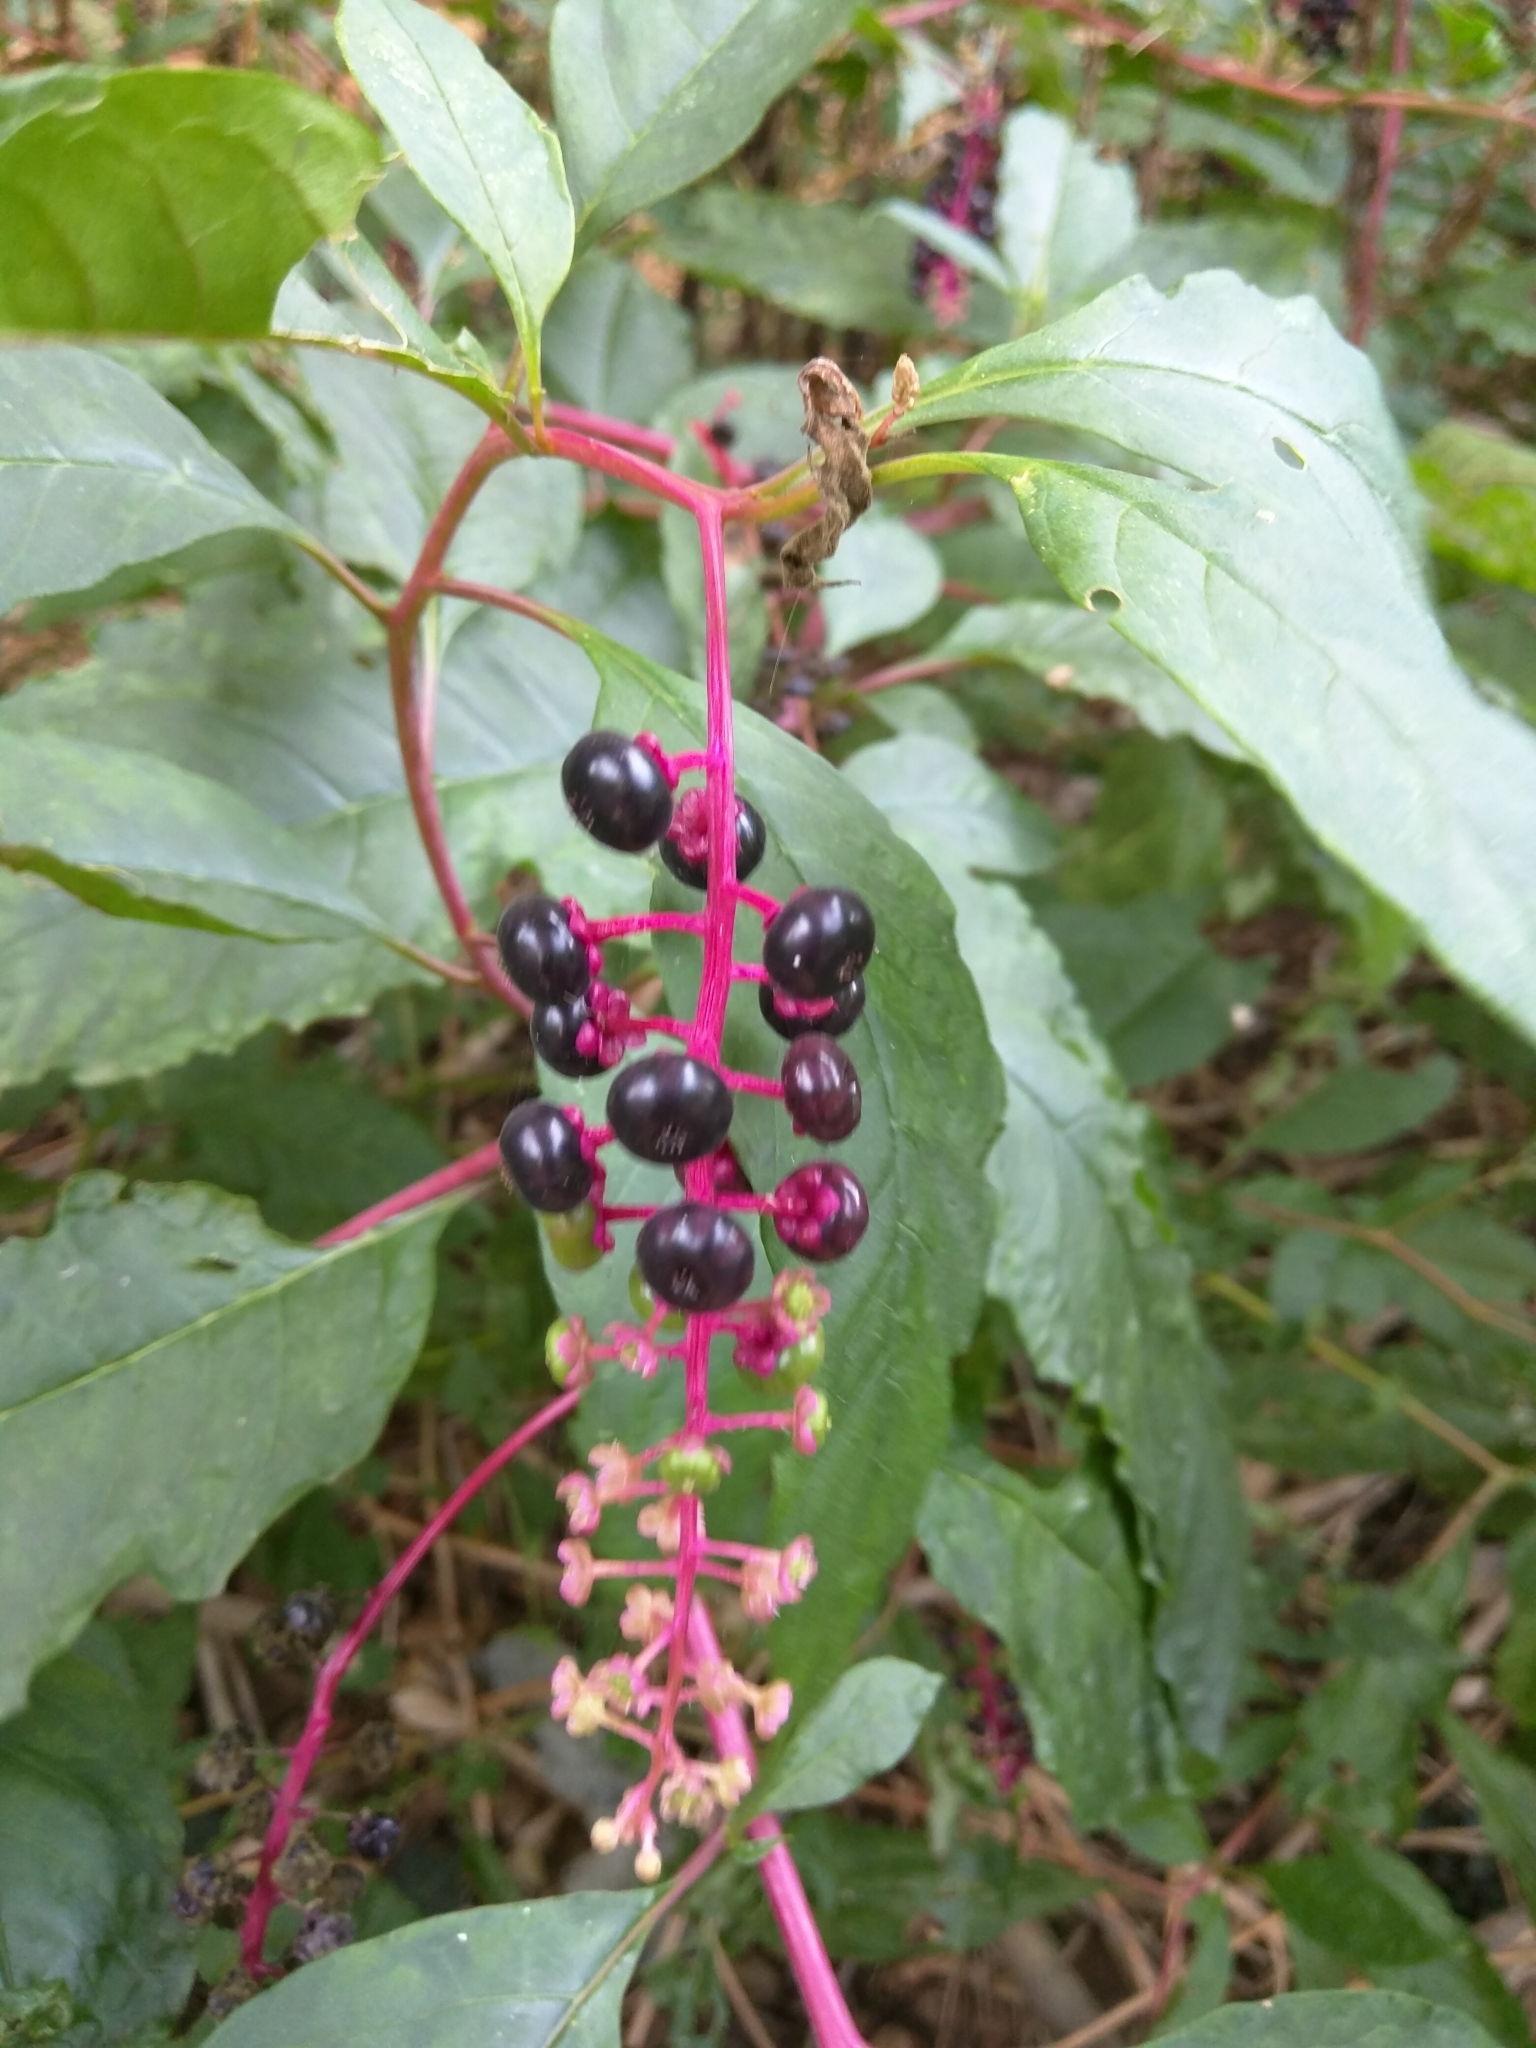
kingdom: Plantae
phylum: Tracheophyta
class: Magnoliopsida
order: Caryophyllales
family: Phytolaccaceae
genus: Phytolacca
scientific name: Phytolacca americana
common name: American pokeweed
